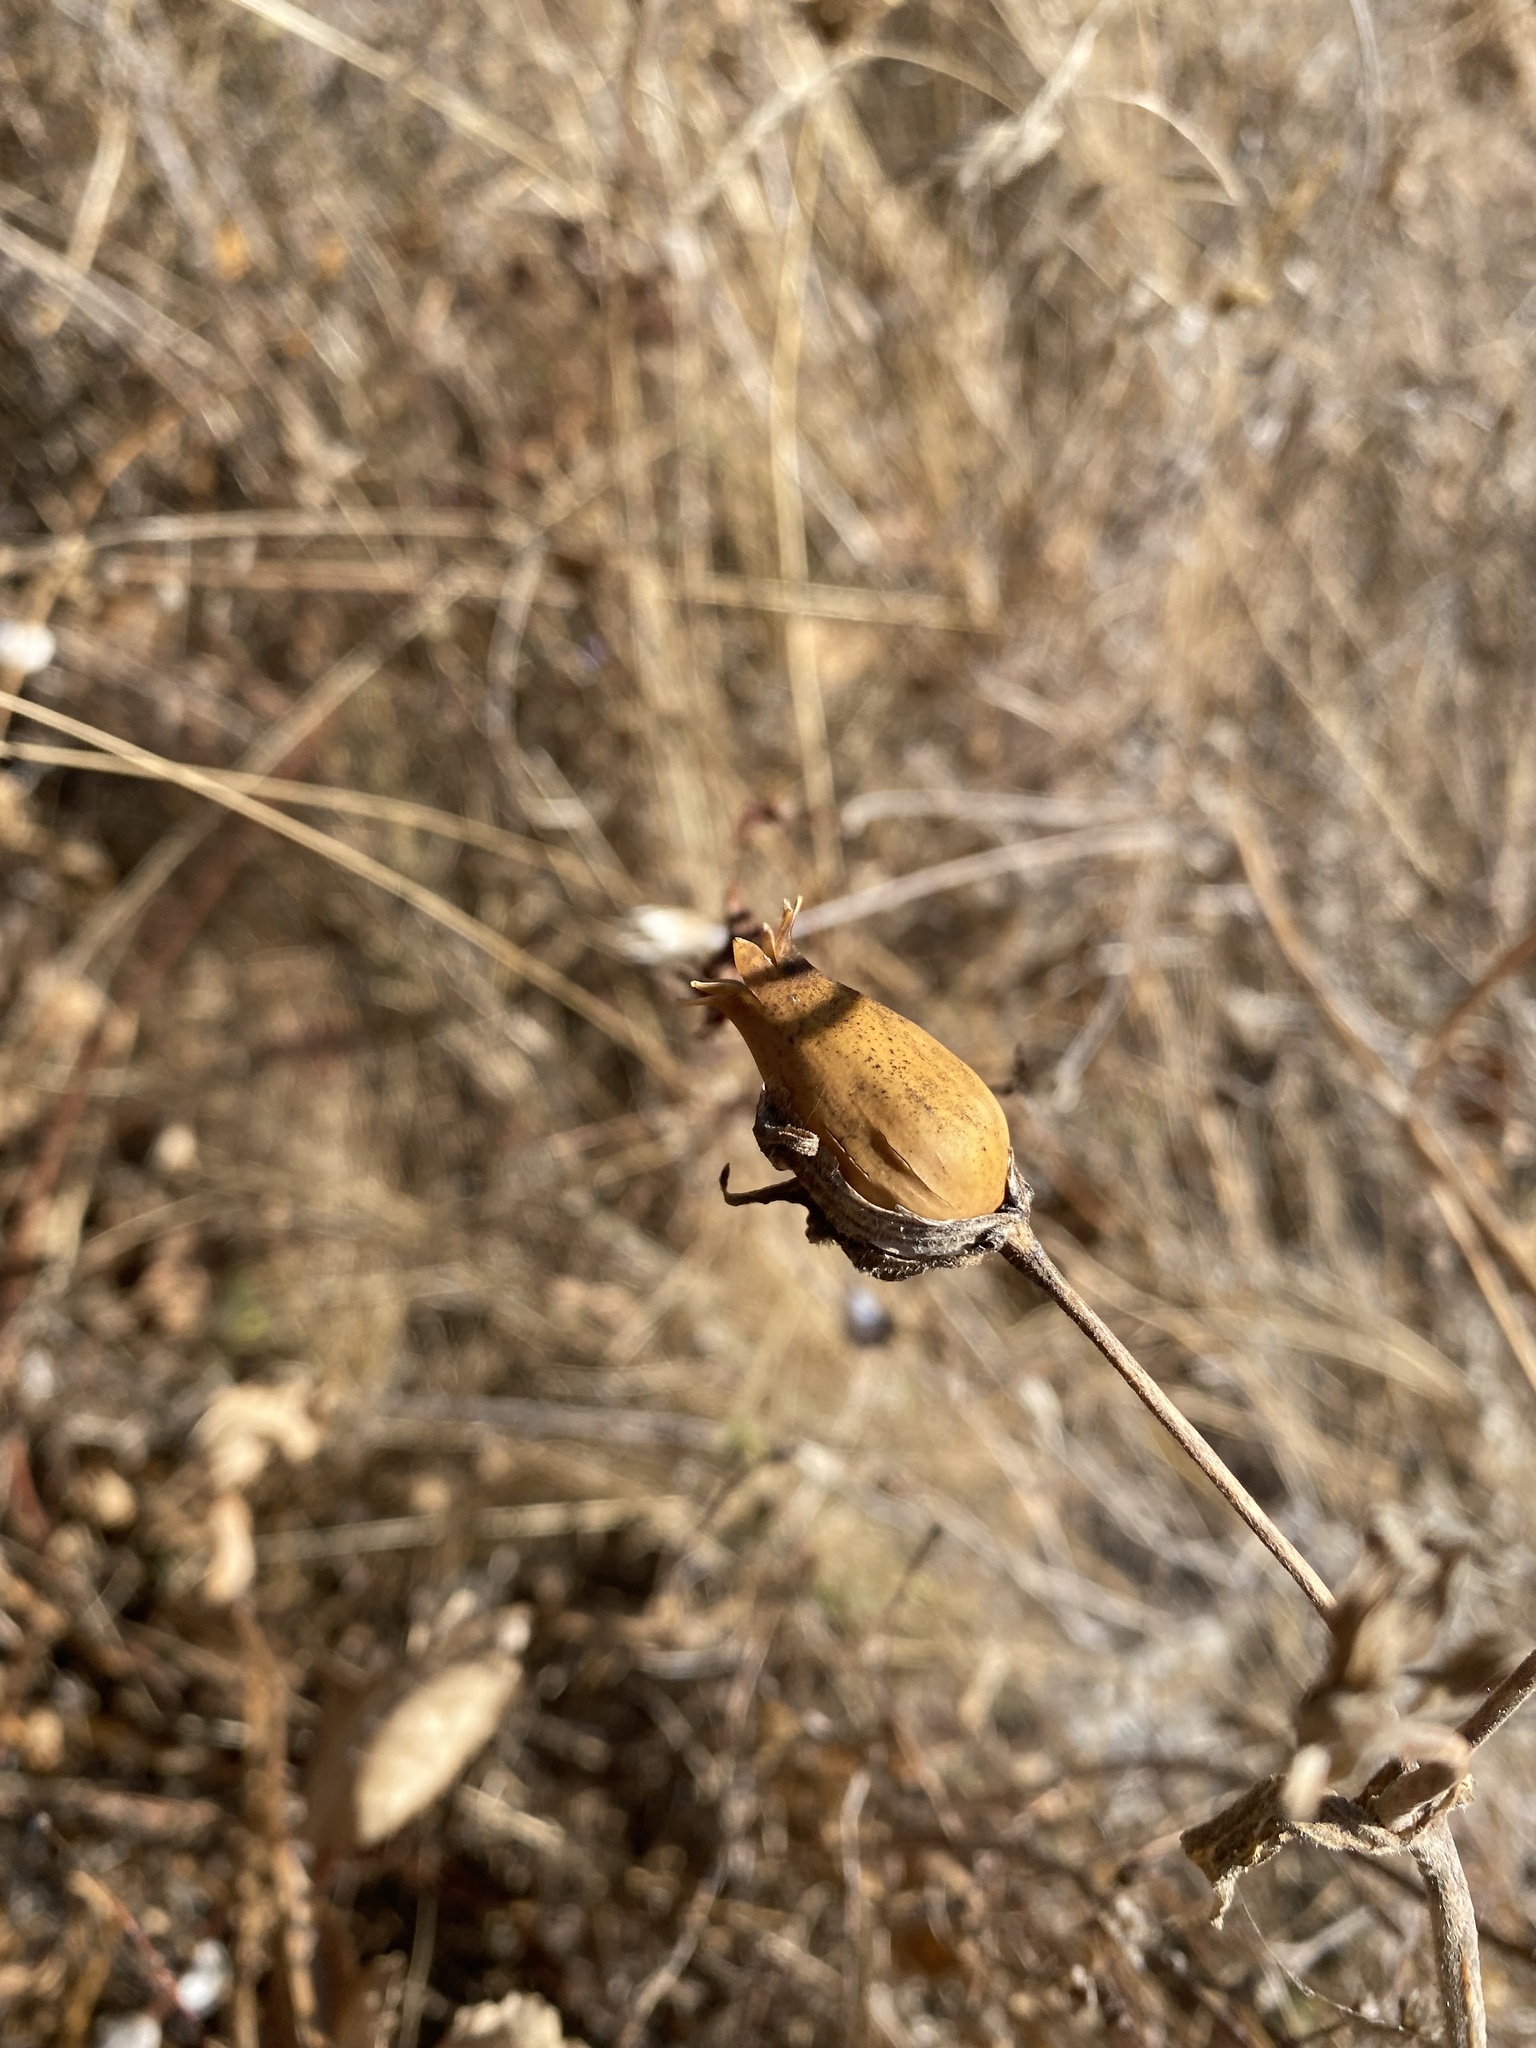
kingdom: Plantae
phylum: Tracheophyta
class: Magnoliopsida
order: Caryophyllales
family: Caryophyllaceae
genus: Silene
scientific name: Silene latifolia
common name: White campion
